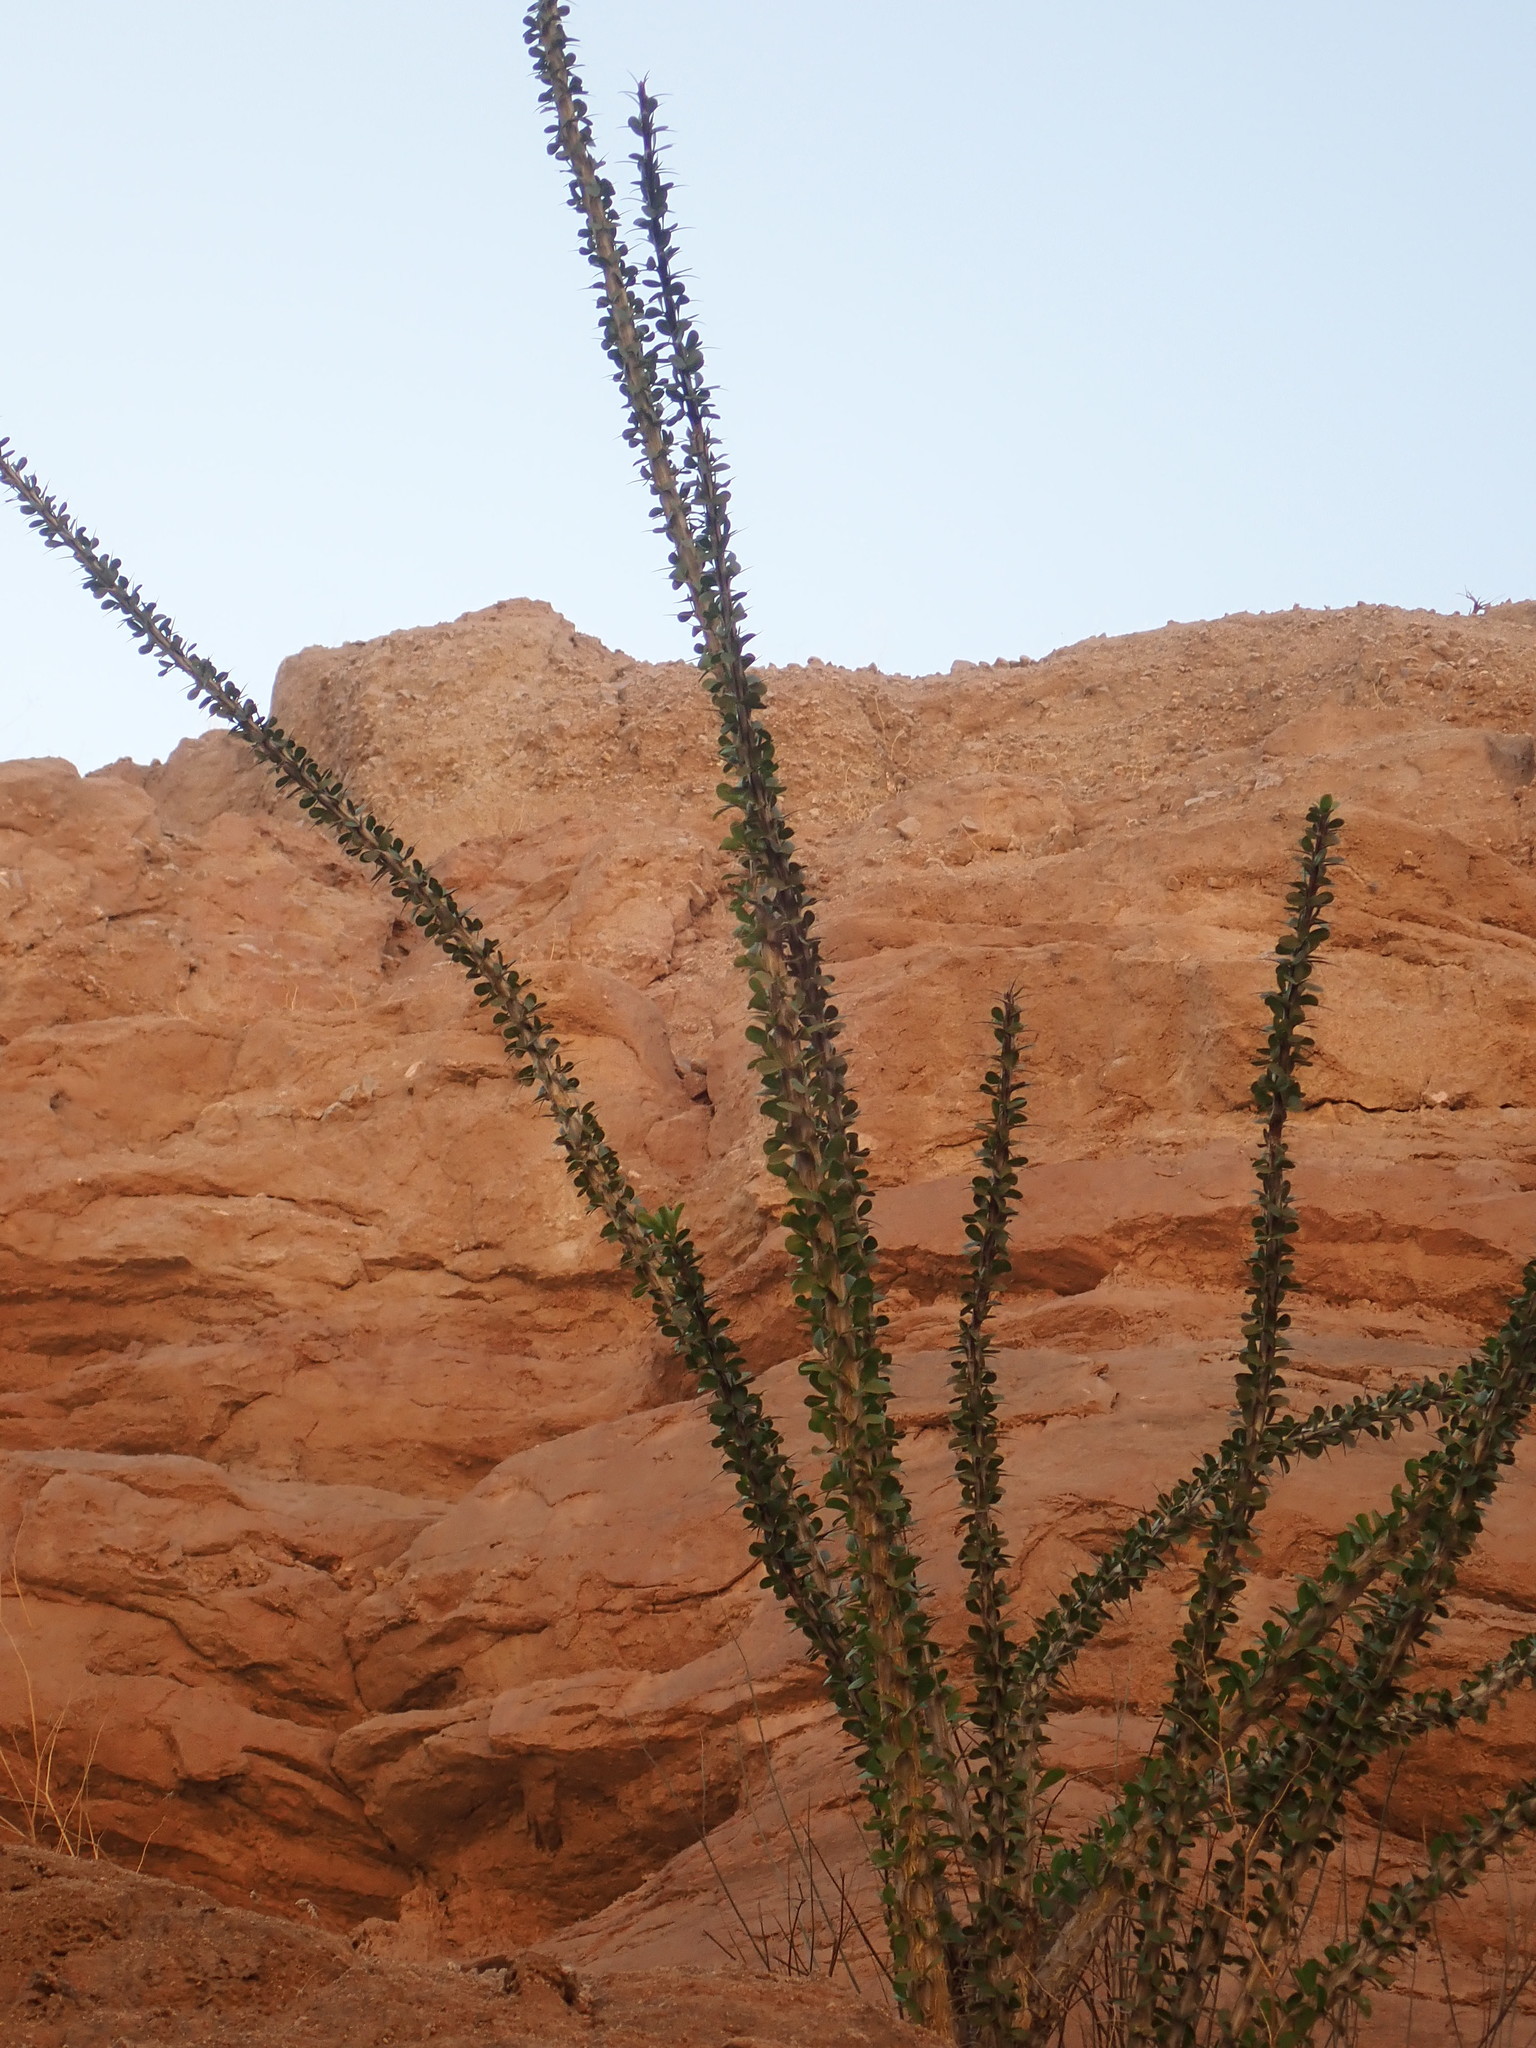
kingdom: Plantae
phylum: Tracheophyta
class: Magnoliopsida
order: Ericales
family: Fouquieriaceae
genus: Fouquieria
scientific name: Fouquieria splendens
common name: Vine-cactus
